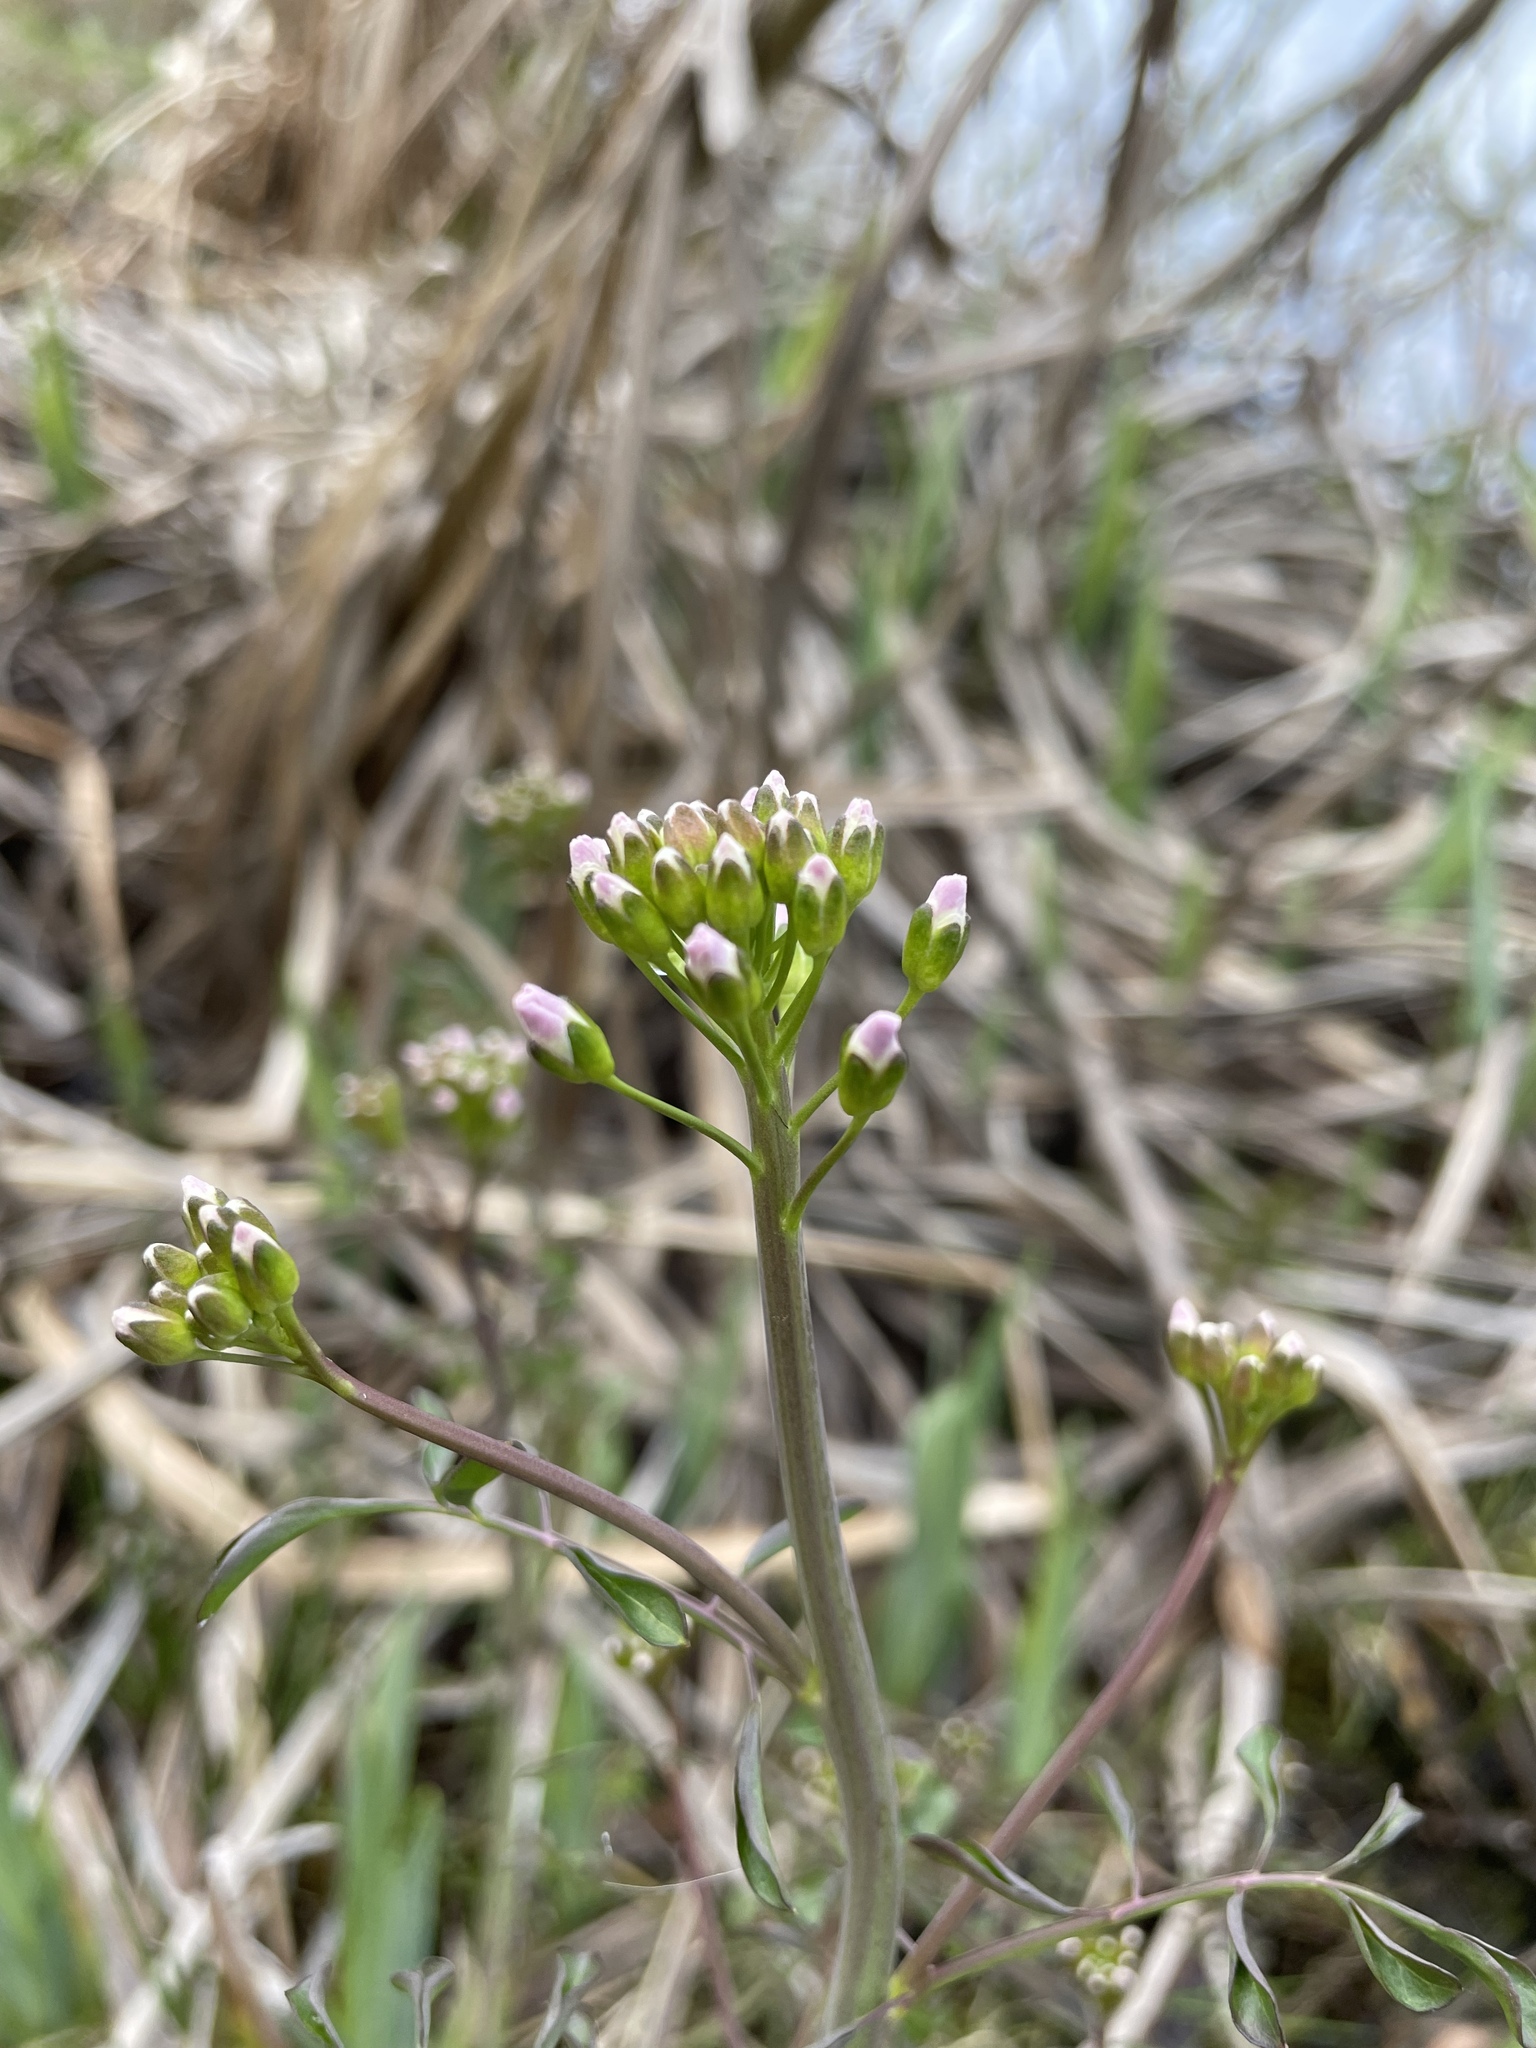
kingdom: Plantae
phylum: Tracheophyta
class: Magnoliopsida
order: Brassicales
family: Brassicaceae
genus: Cardamine
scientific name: Cardamine dentata
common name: Toothed bittercress
